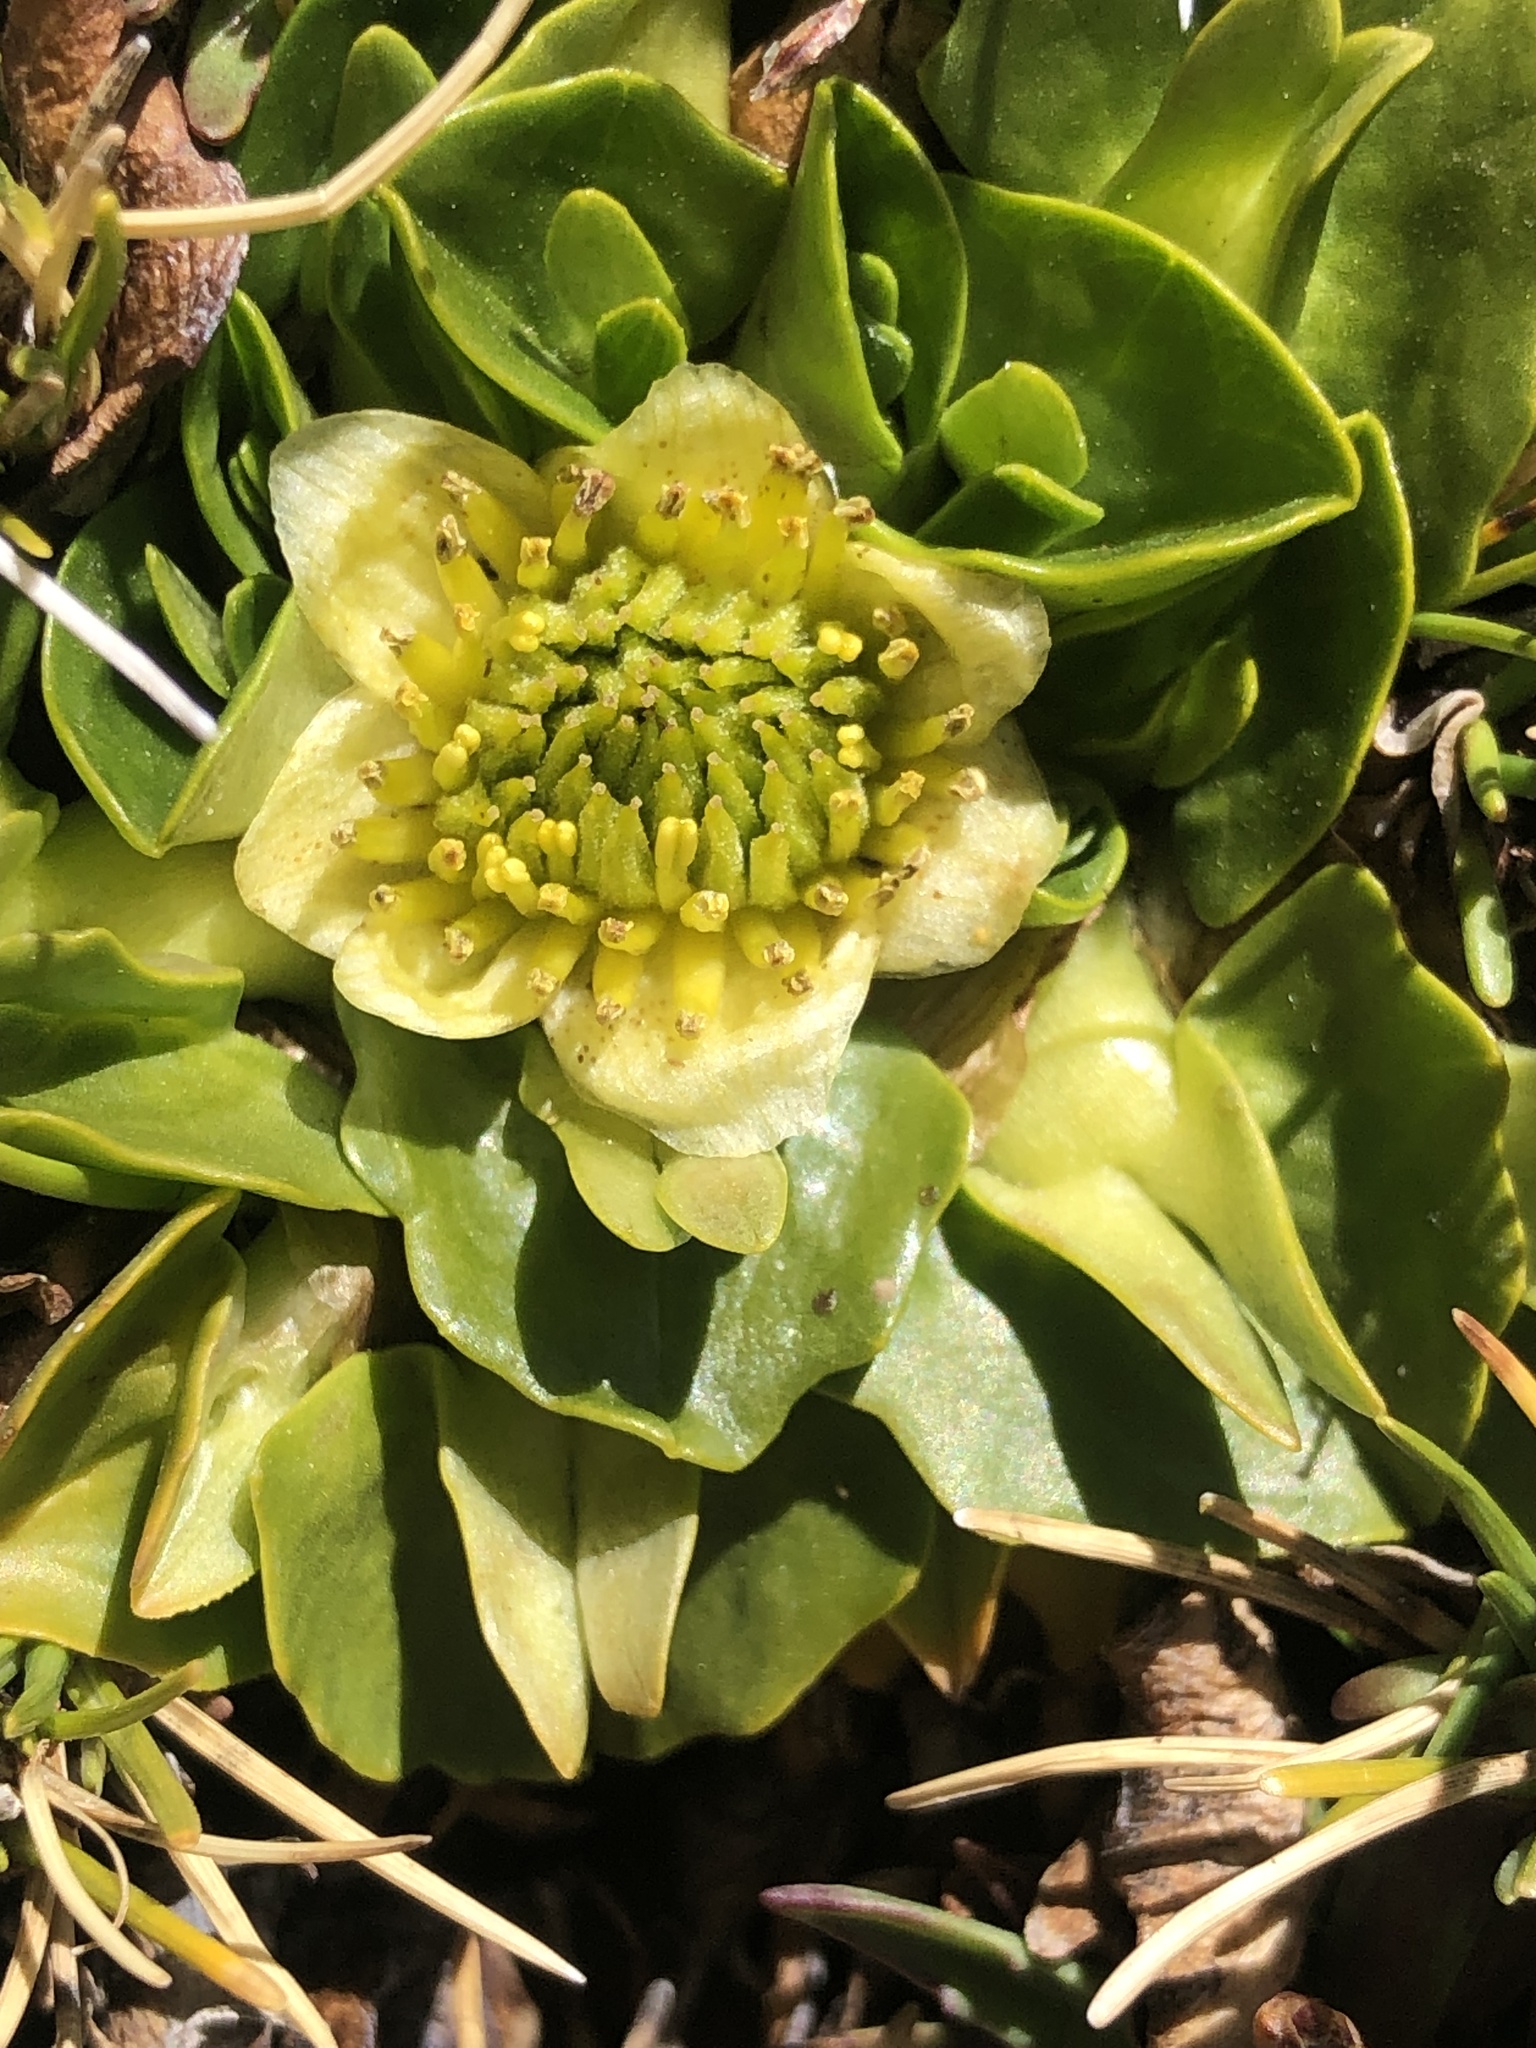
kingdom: Plantae
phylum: Tracheophyta
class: Magnoliopsida
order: Ranunculales
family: Ranunculaceae
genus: Caltha
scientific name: Caltha sagittata
